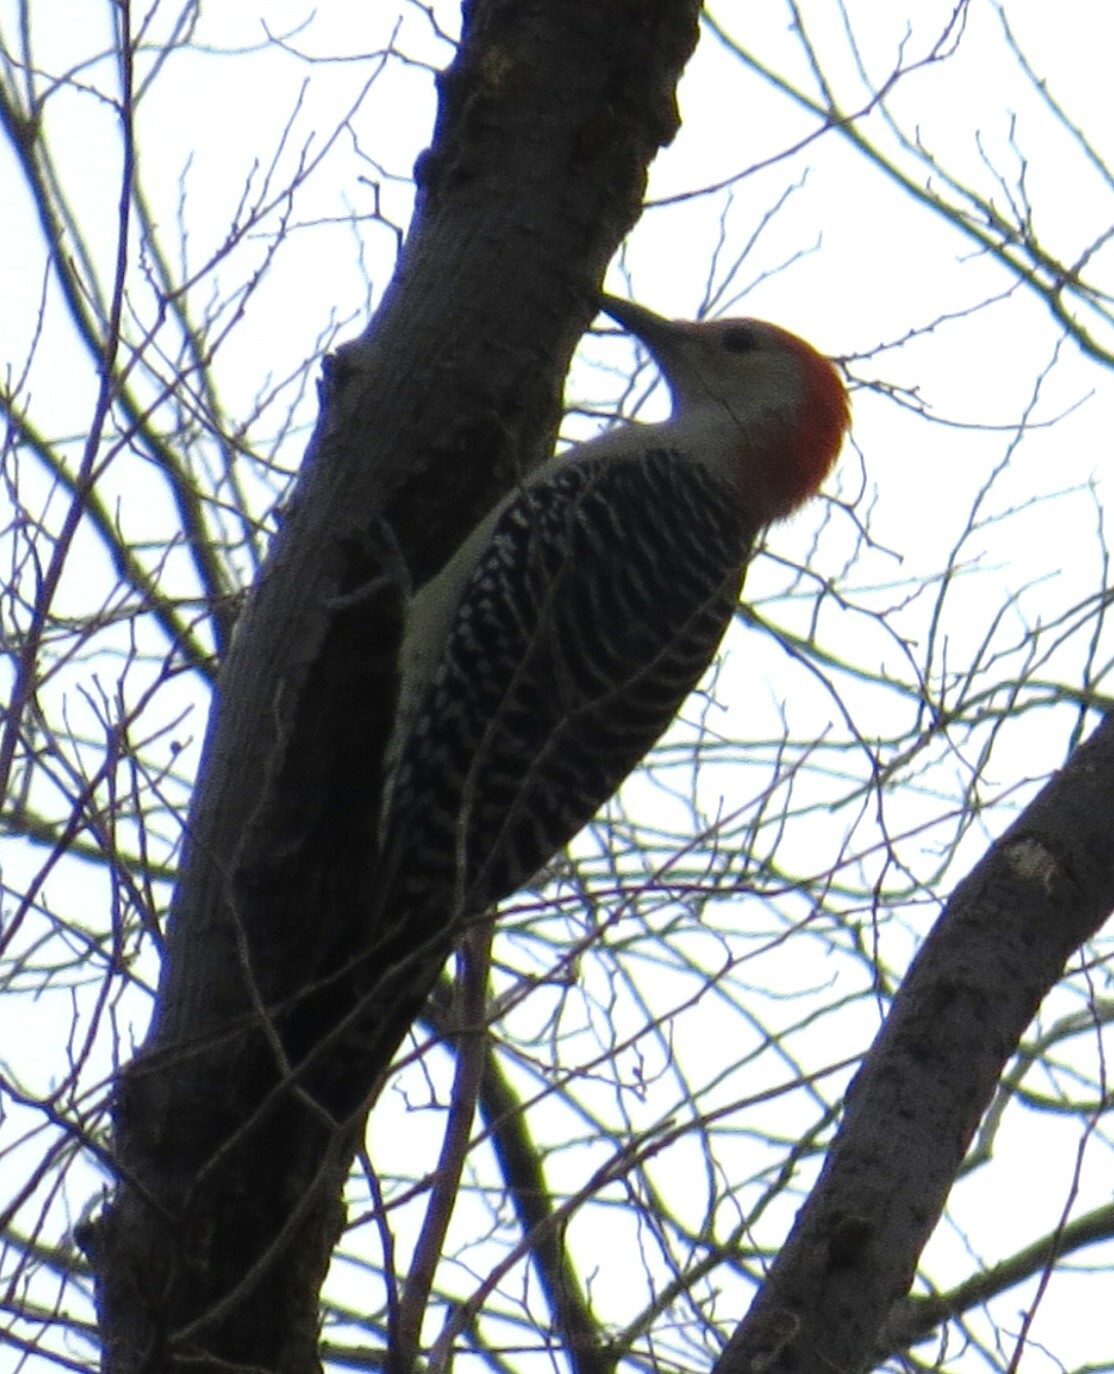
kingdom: Animalia
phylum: Chordata
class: Aves
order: Piciformes
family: Picidae
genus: Melanerpes
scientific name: Melanerpes carolinus
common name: Red-bellied woodpecker
